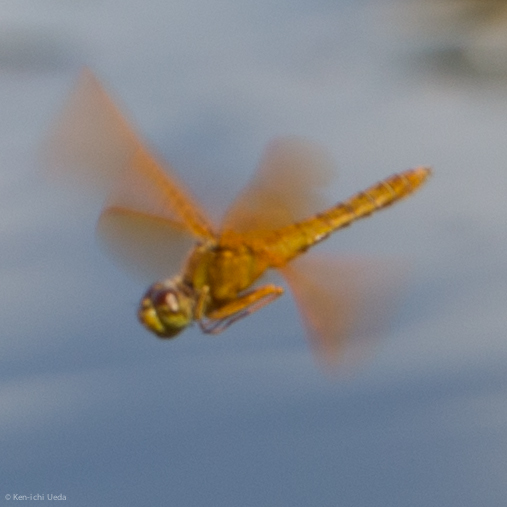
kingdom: Animalia
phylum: Arthropoda
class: Insecta
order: Odonata
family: Libellulidae
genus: Perithemis
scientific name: Perithemis intensa
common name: Mexican amberwing
